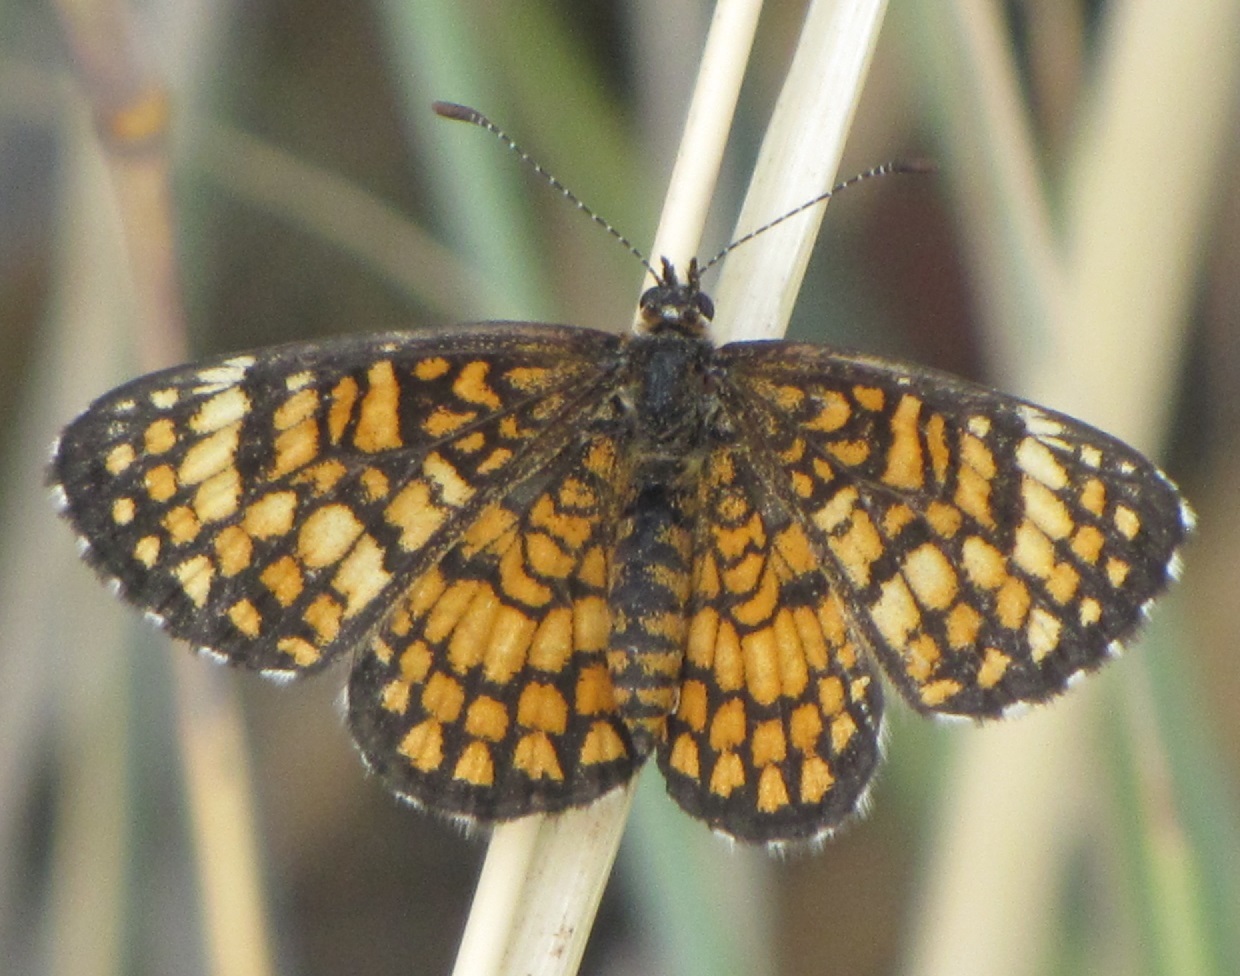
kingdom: Animalia
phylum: Arthropoda
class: Insecta
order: Lepidoptera
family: Nymphalidae
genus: Texola
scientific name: Texola
